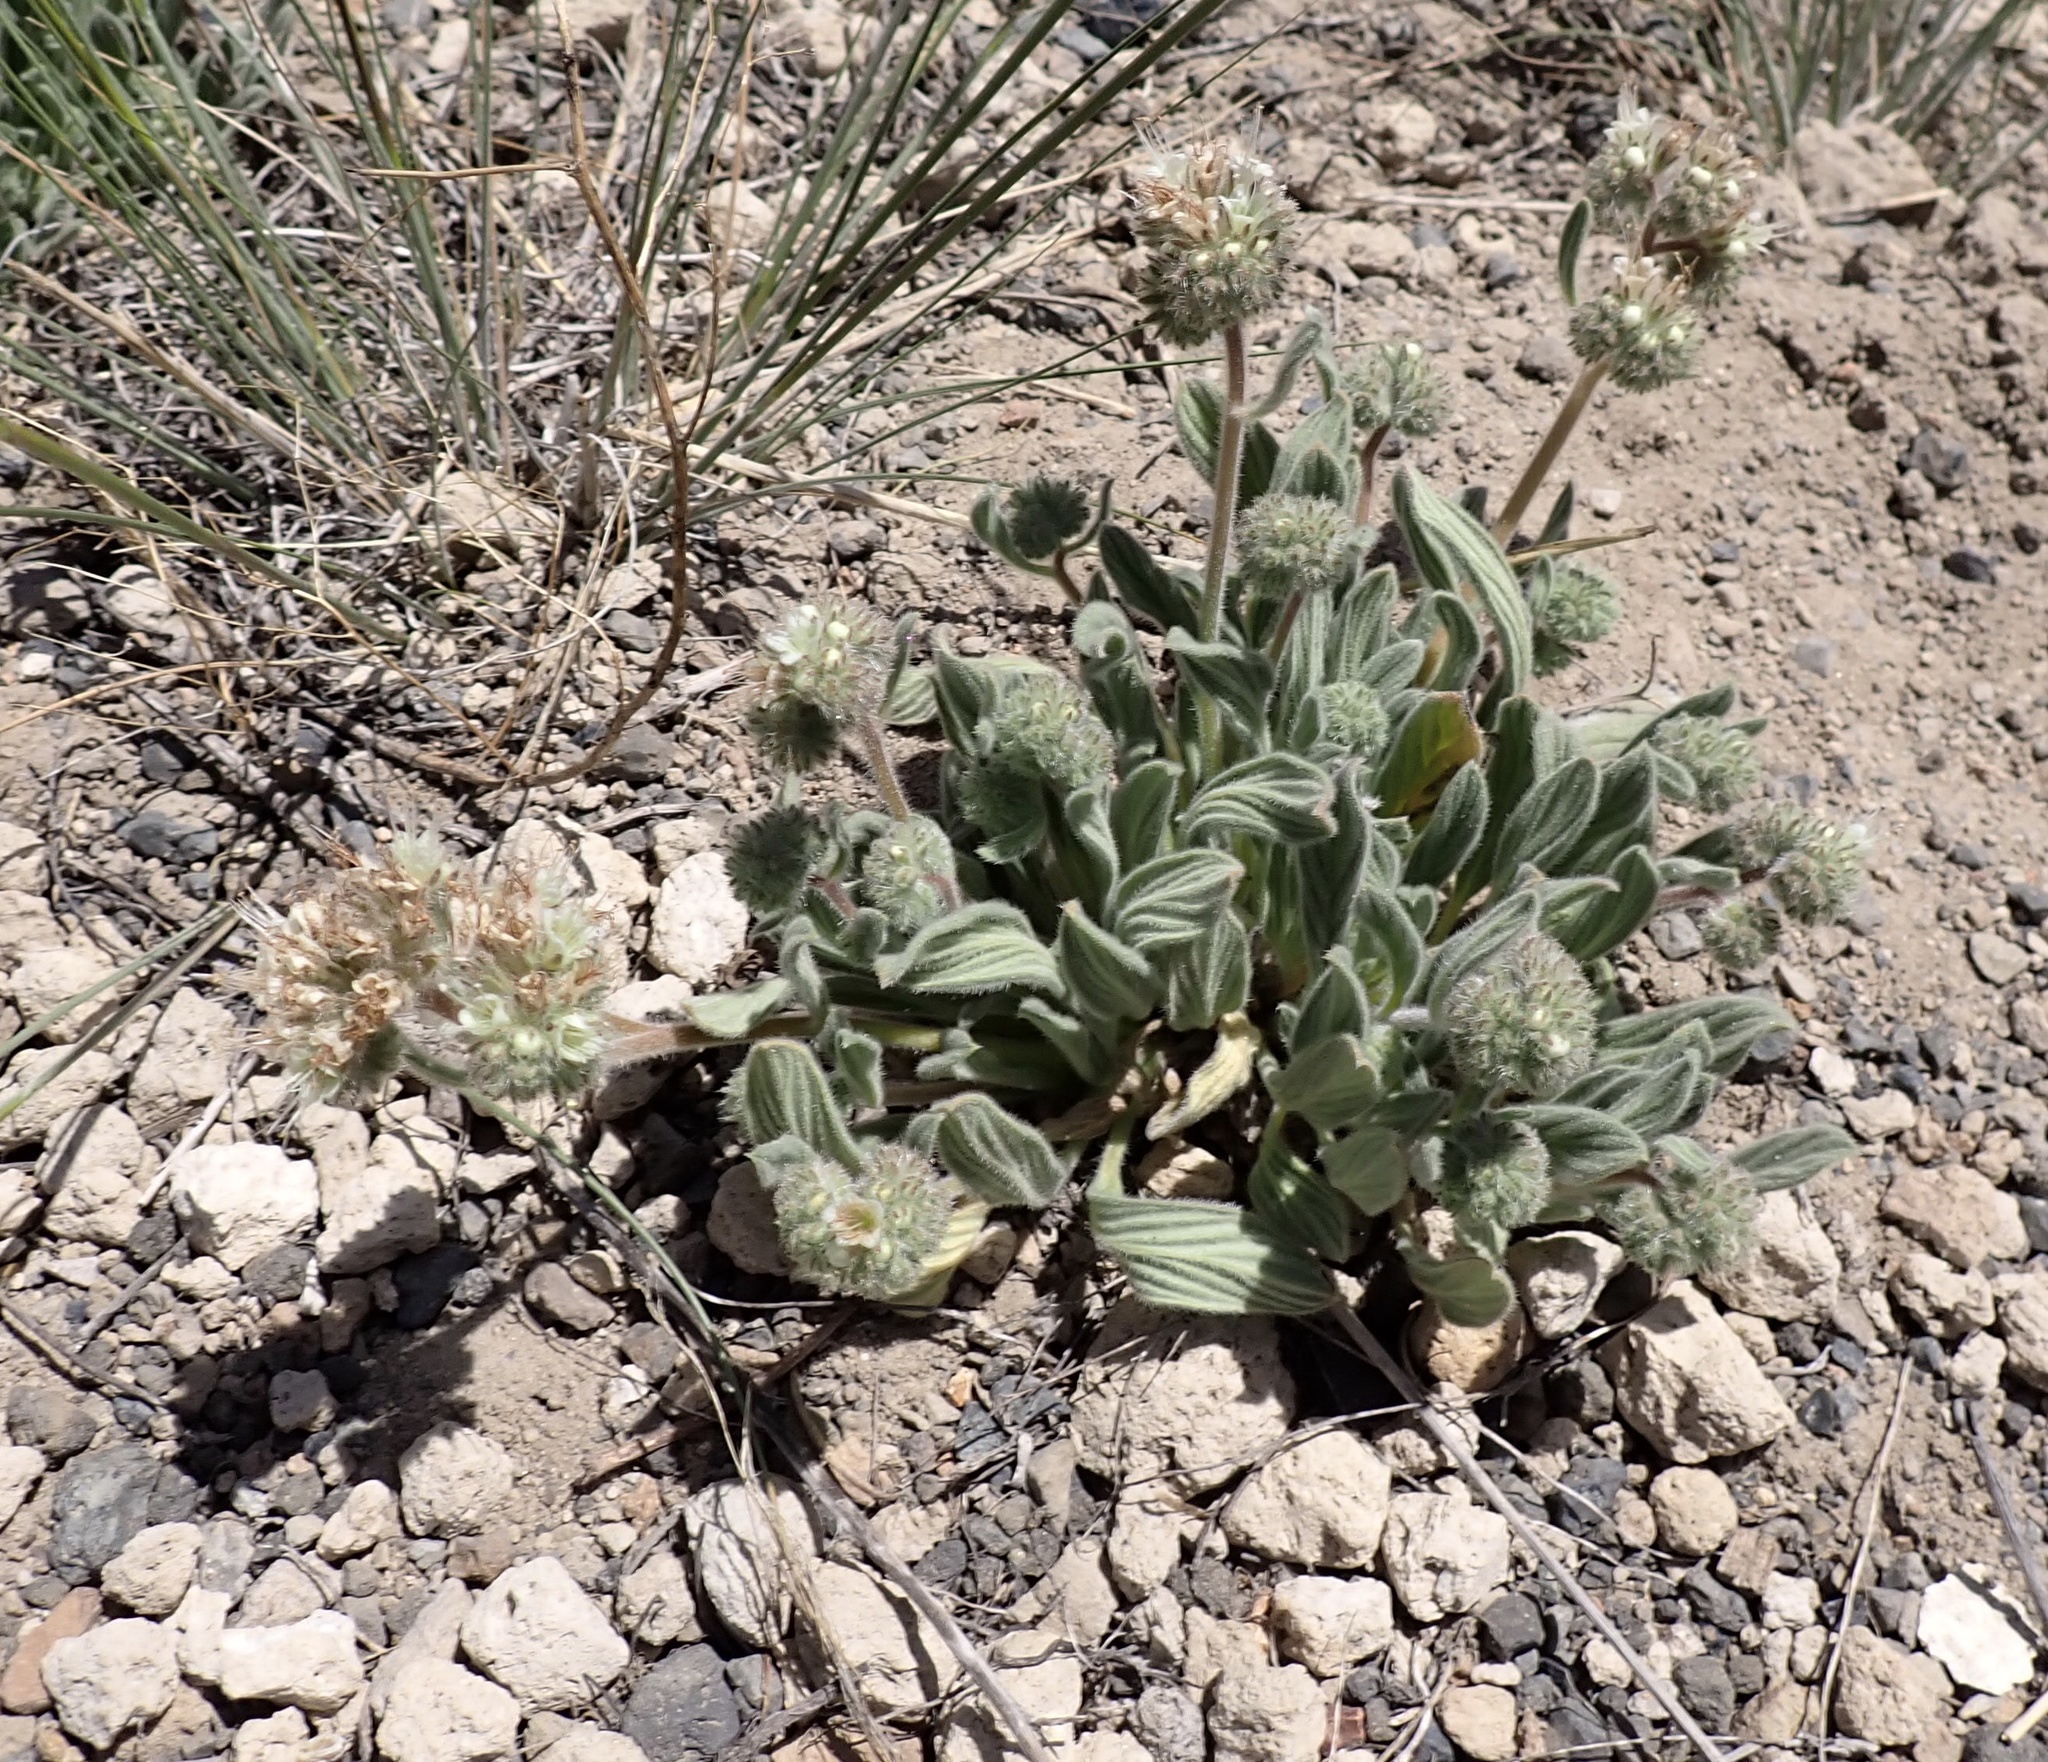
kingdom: Plantae
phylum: Tracheophyta
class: Magnoliopsida
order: Boraginales
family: Hydrophyllaceae
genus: Phacelia
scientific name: Phacelia hastata
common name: Silver-leaved phacelia
